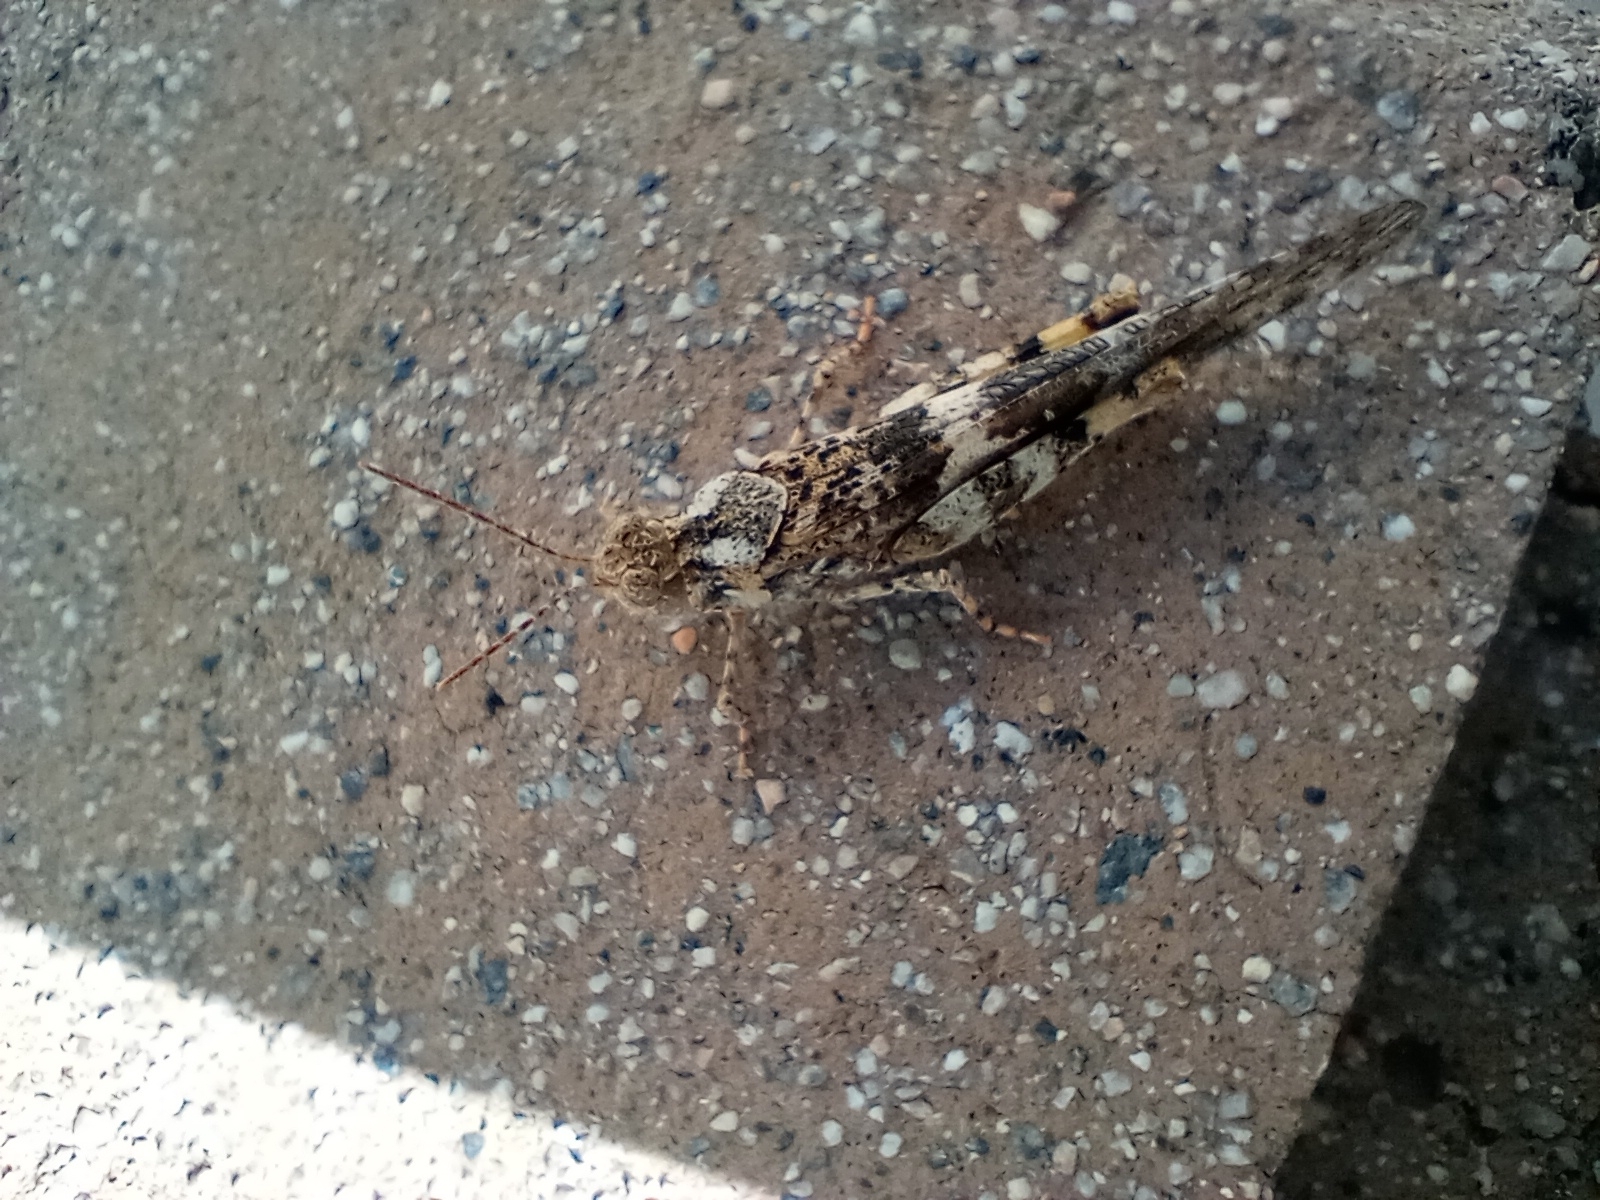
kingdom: Animalia
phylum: Arthropoda
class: Insecta
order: Orthoptera
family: Acrididae
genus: Trimerotropis
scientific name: Trimerotropis pallidipennis
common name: Pallid-winged grasshopper
